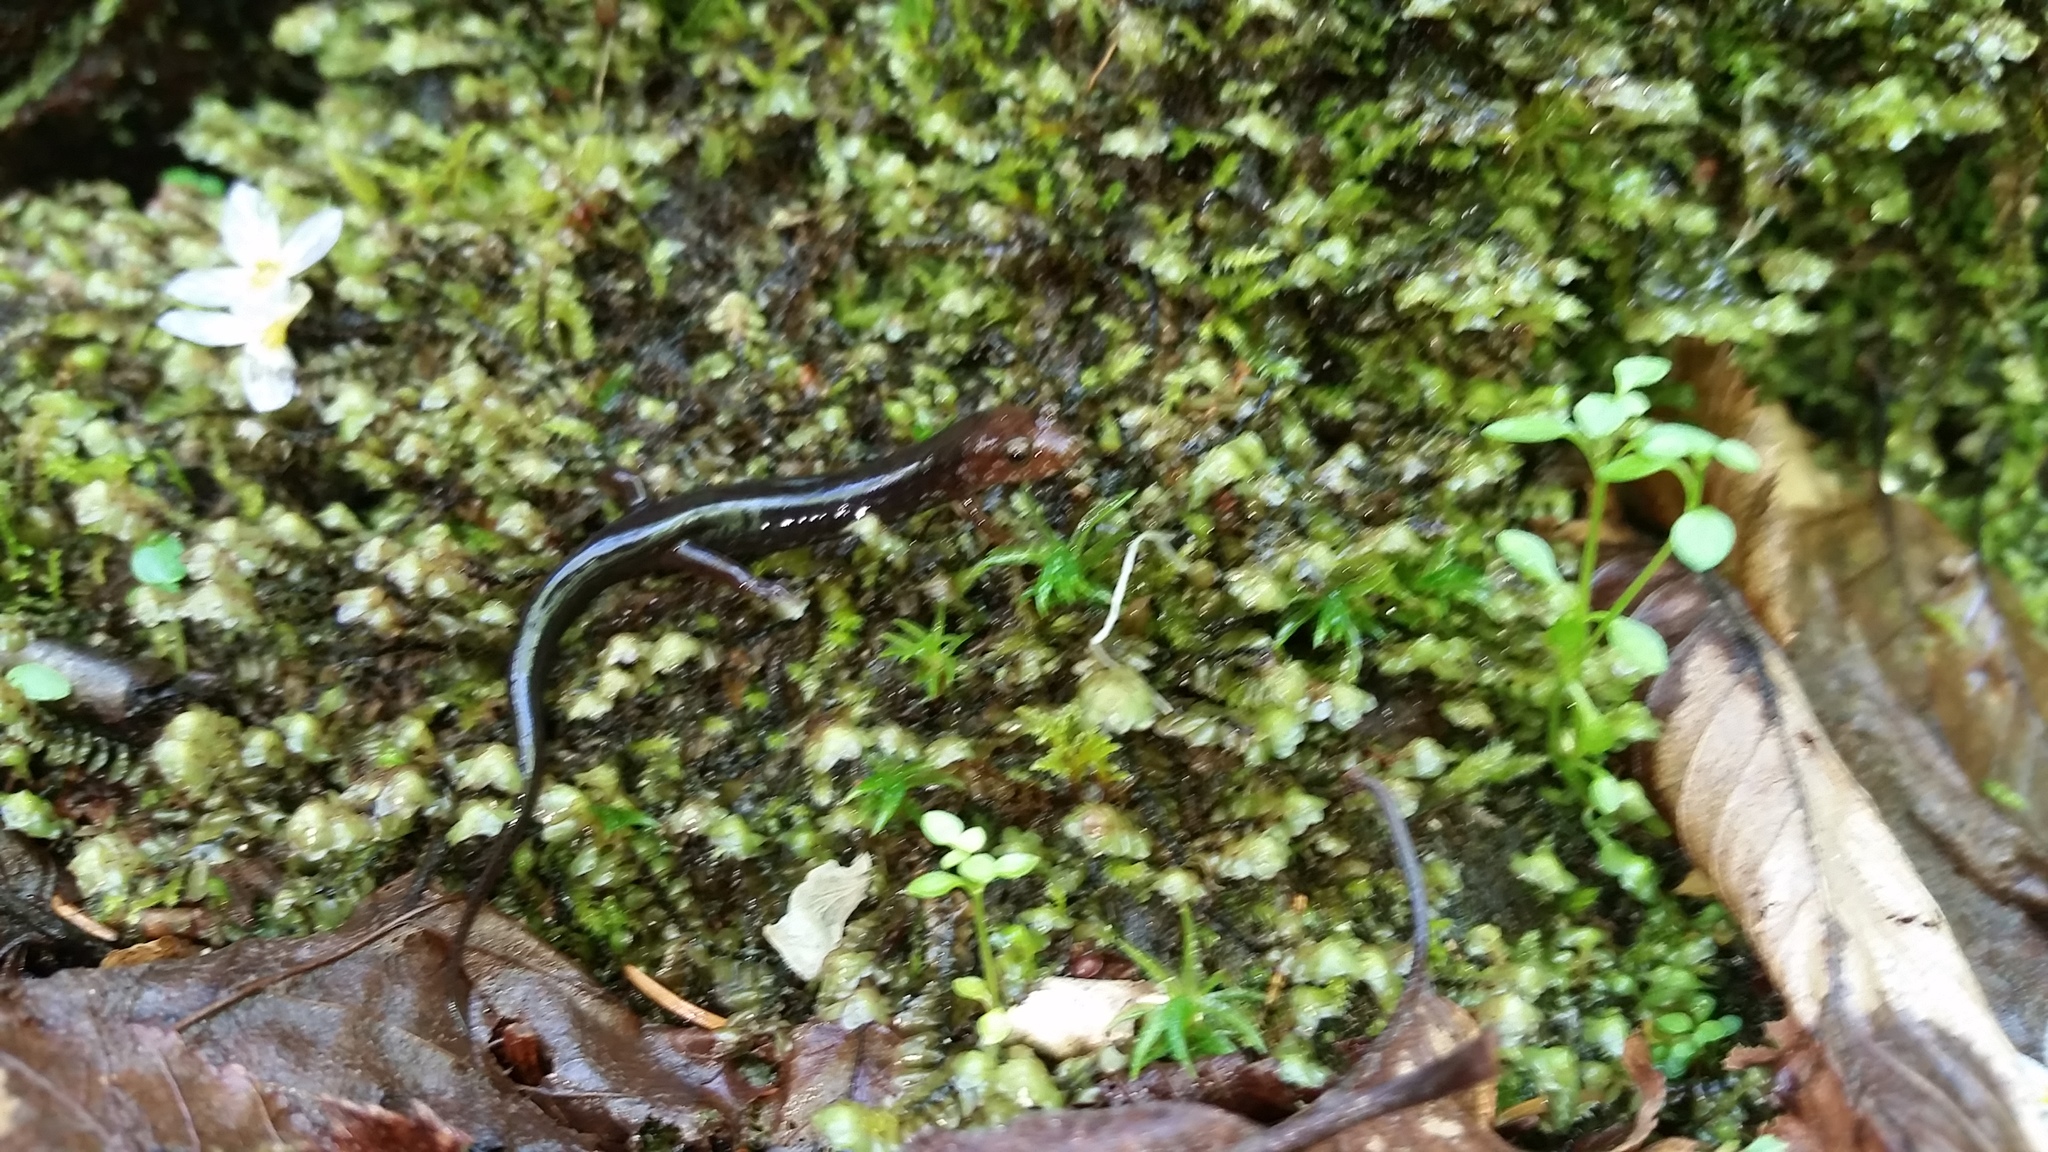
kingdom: Animalia
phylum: Chordata
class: Amphibia
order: Caudata
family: Plethodontidae
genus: Desmognathus
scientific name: Desmognathus imitator
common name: Imitator salamander
